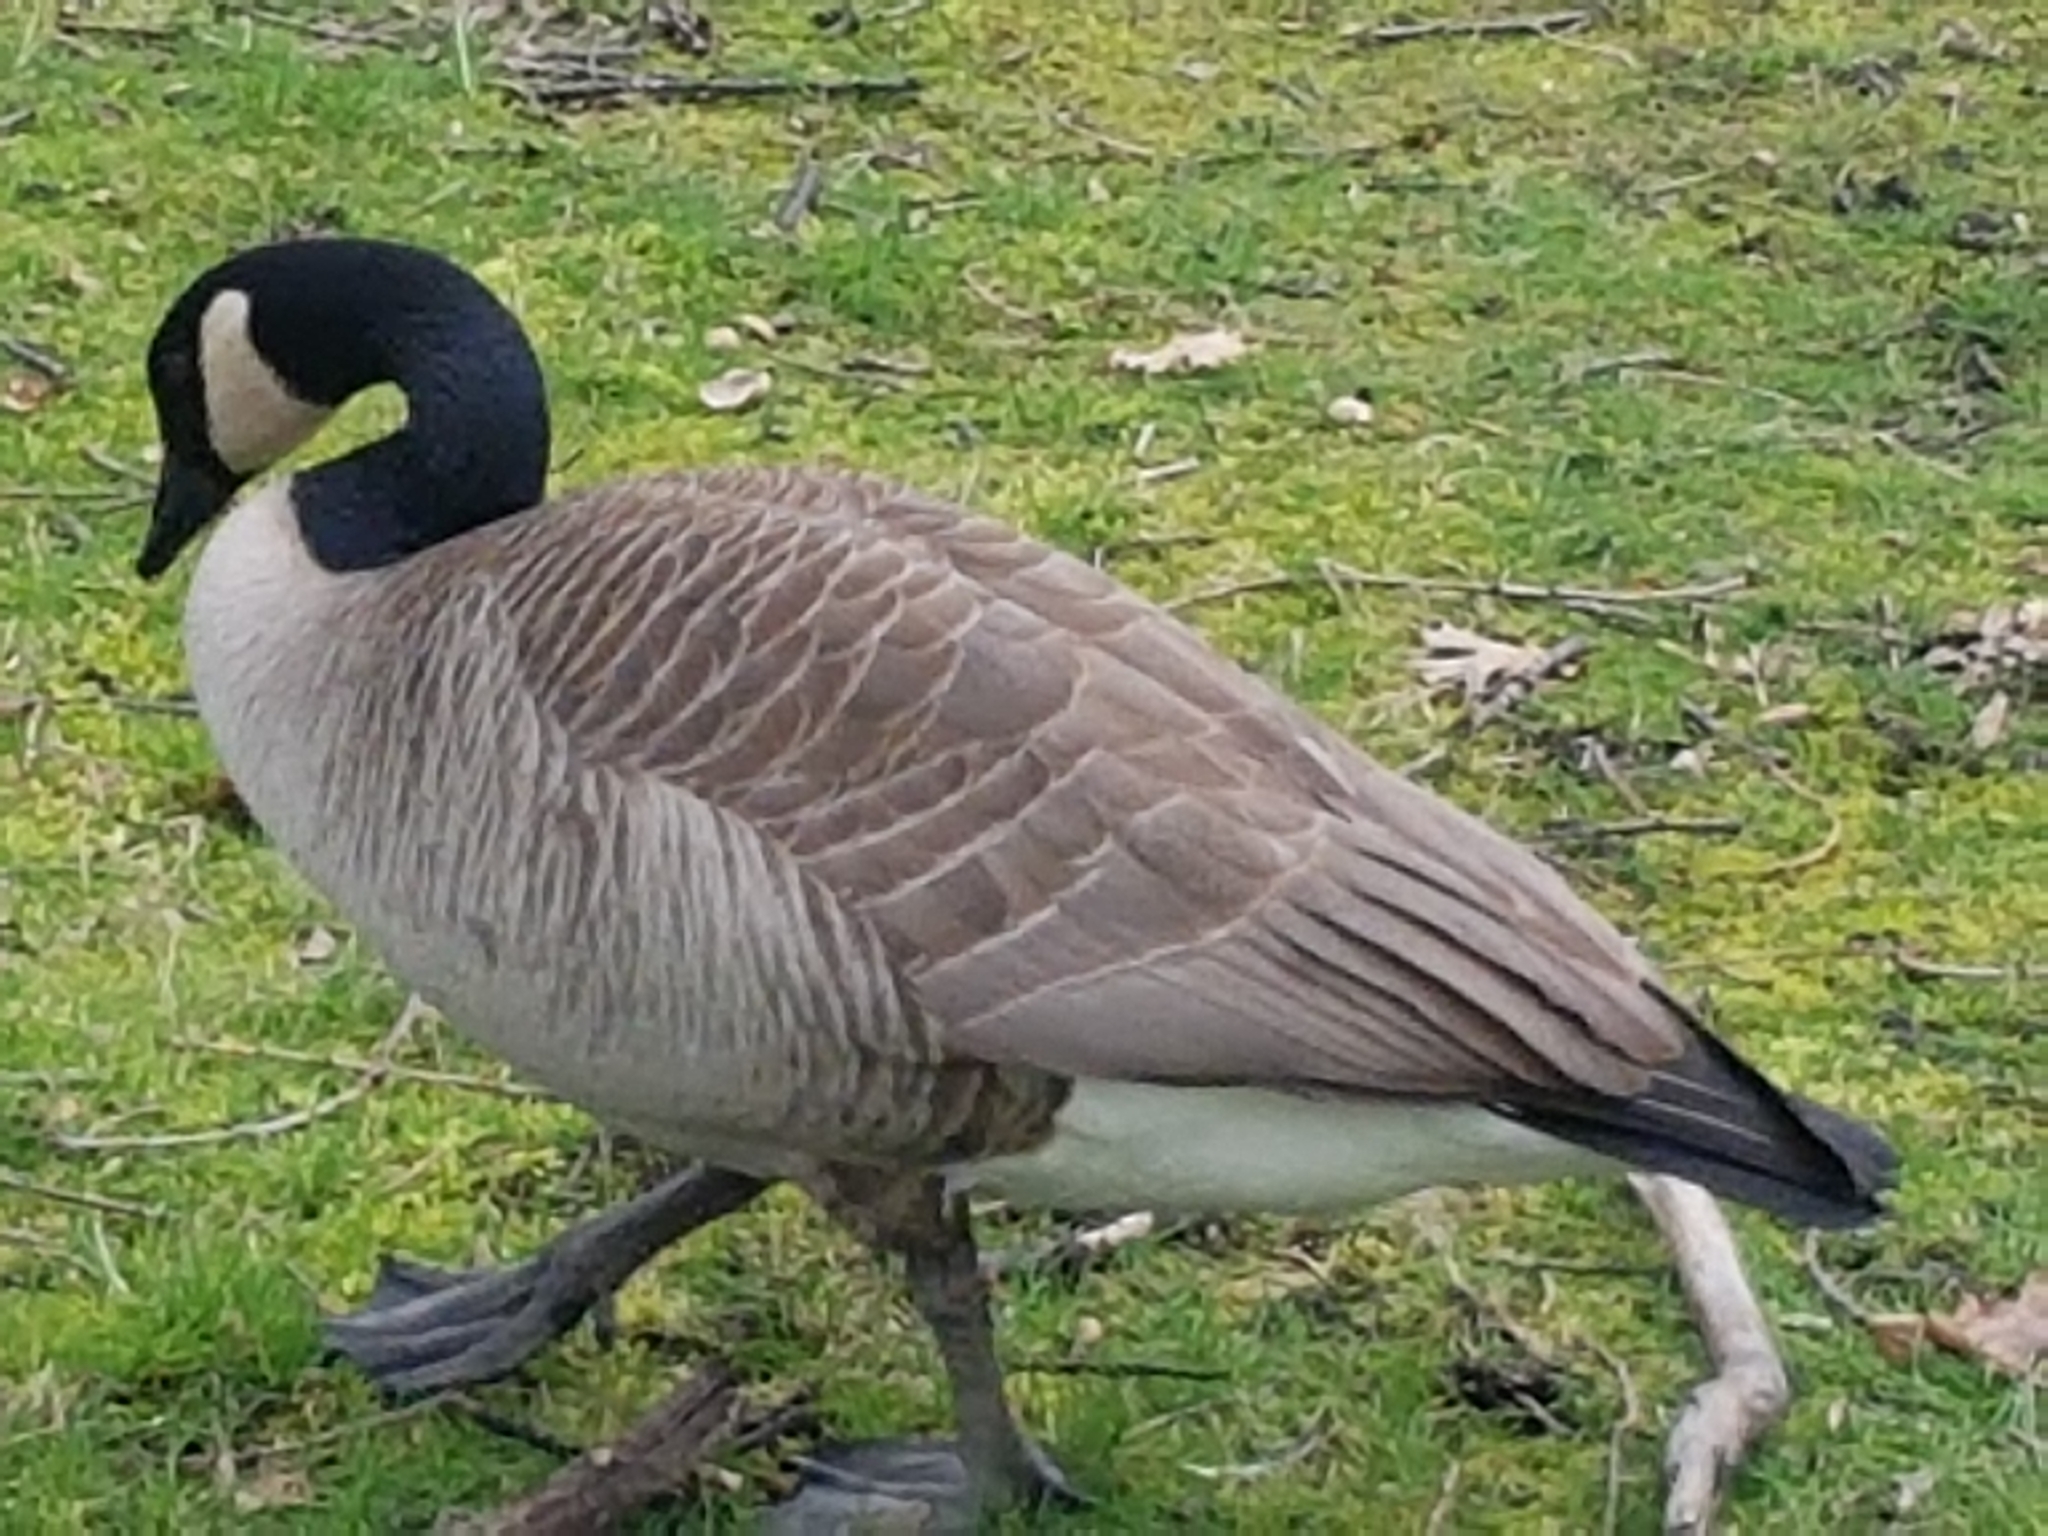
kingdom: Animalia
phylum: Chordata
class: Aves
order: Anseriformes
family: Anatidae
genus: Branta
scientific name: Branta canadensis
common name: Canada goose
